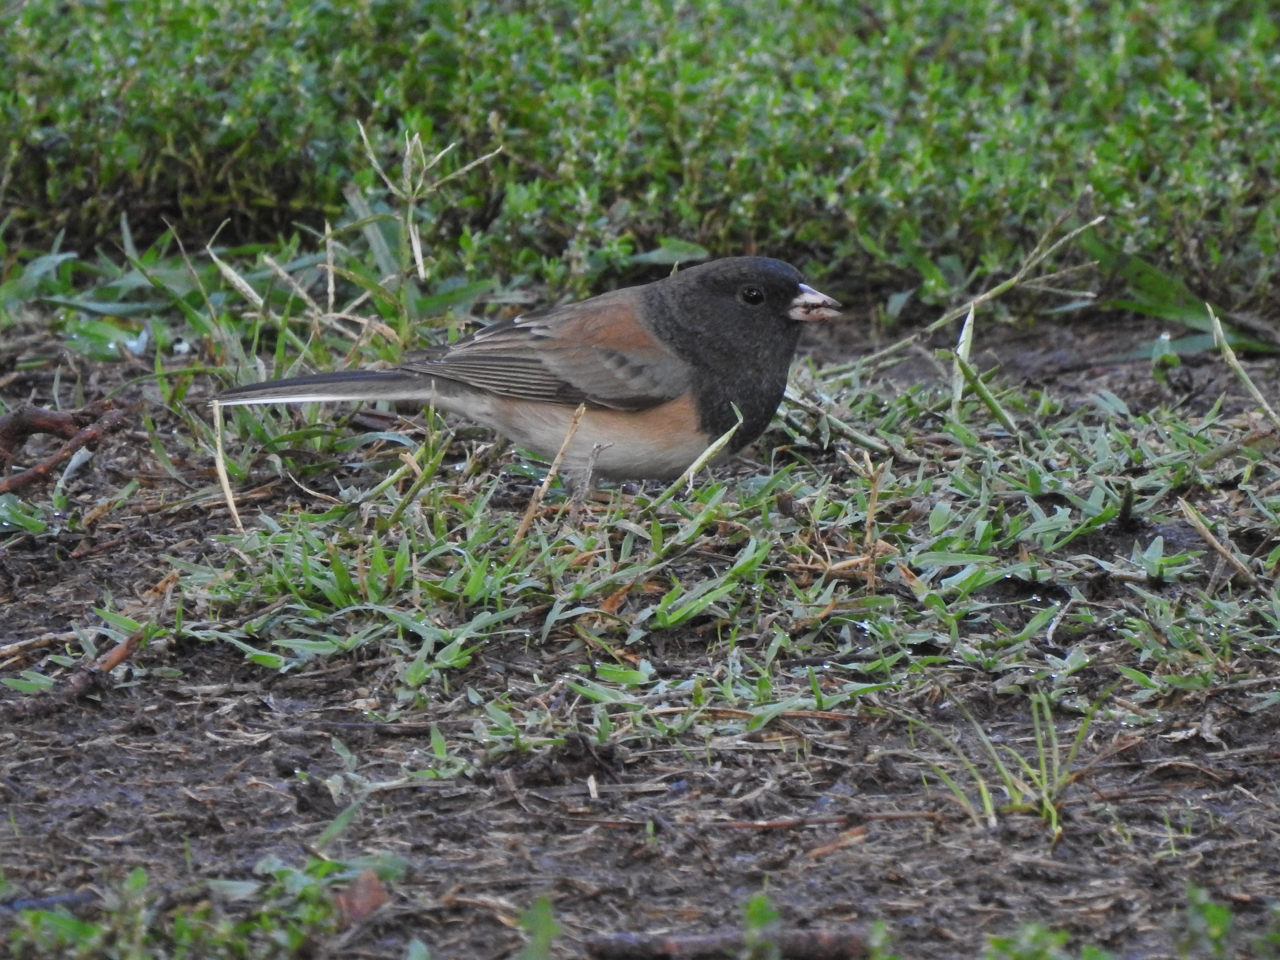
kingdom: Animalia
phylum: Chordata
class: Aves
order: Passeriformes
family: Passerellidae
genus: Junco
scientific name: Junco hyemalis
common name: Dark-eyed junco
